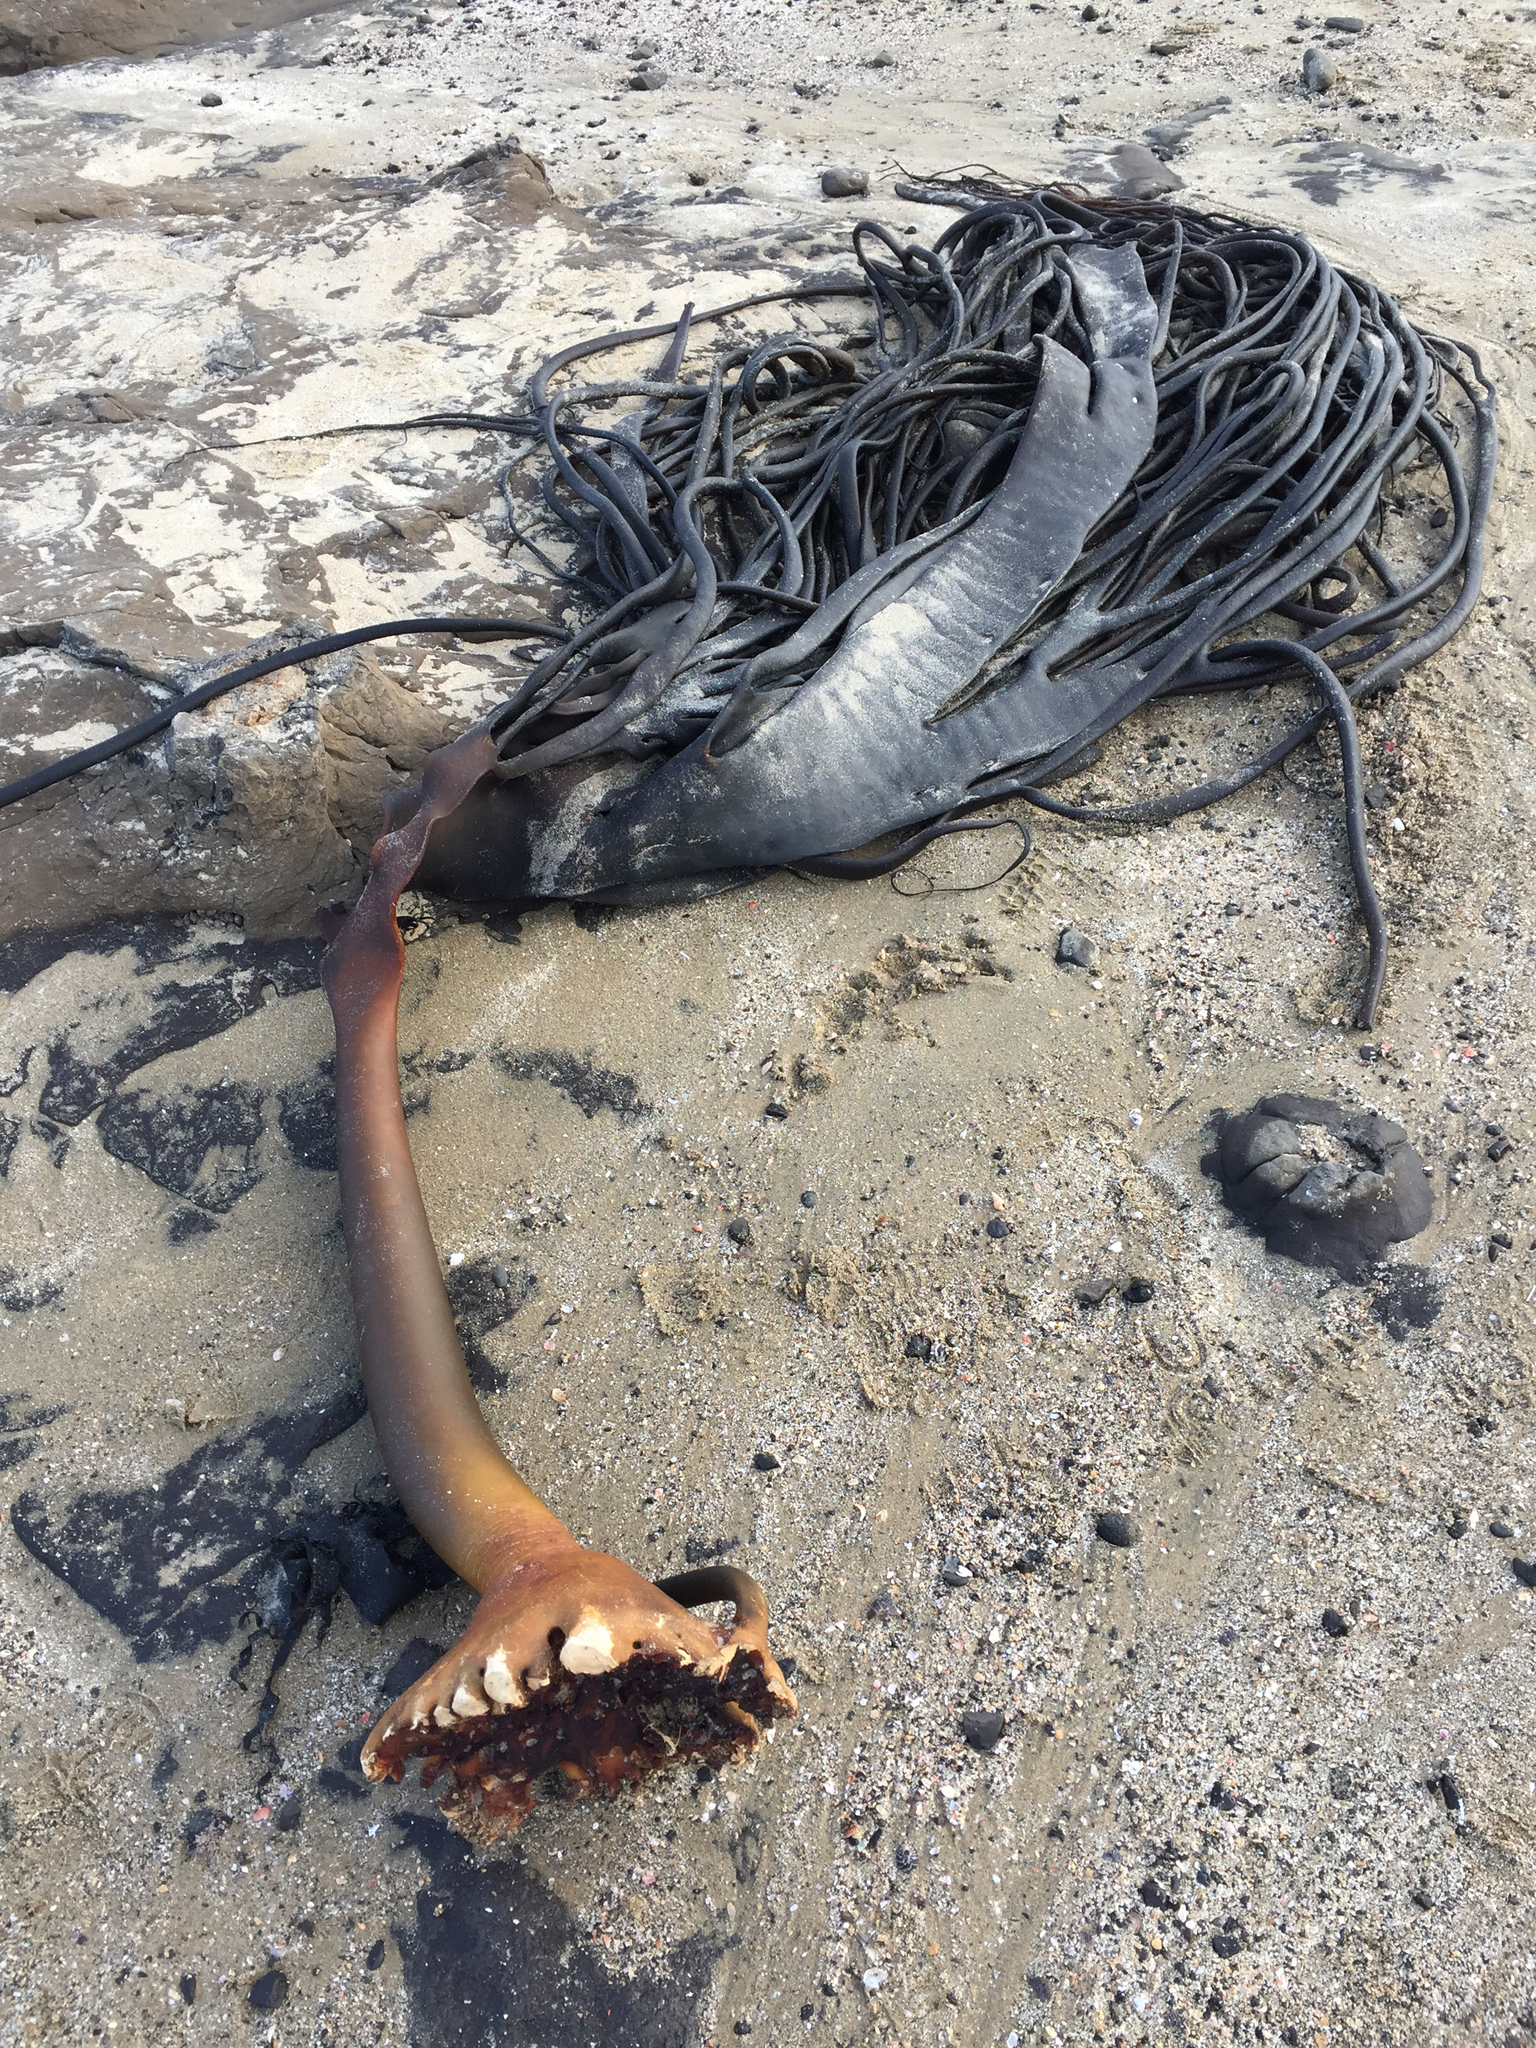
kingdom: Chromista
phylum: Ochrophyta
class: Phaeophyceae
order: Fucales
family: Durvillaeaceae
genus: Durvillaea
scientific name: Durvillaea antarctica
